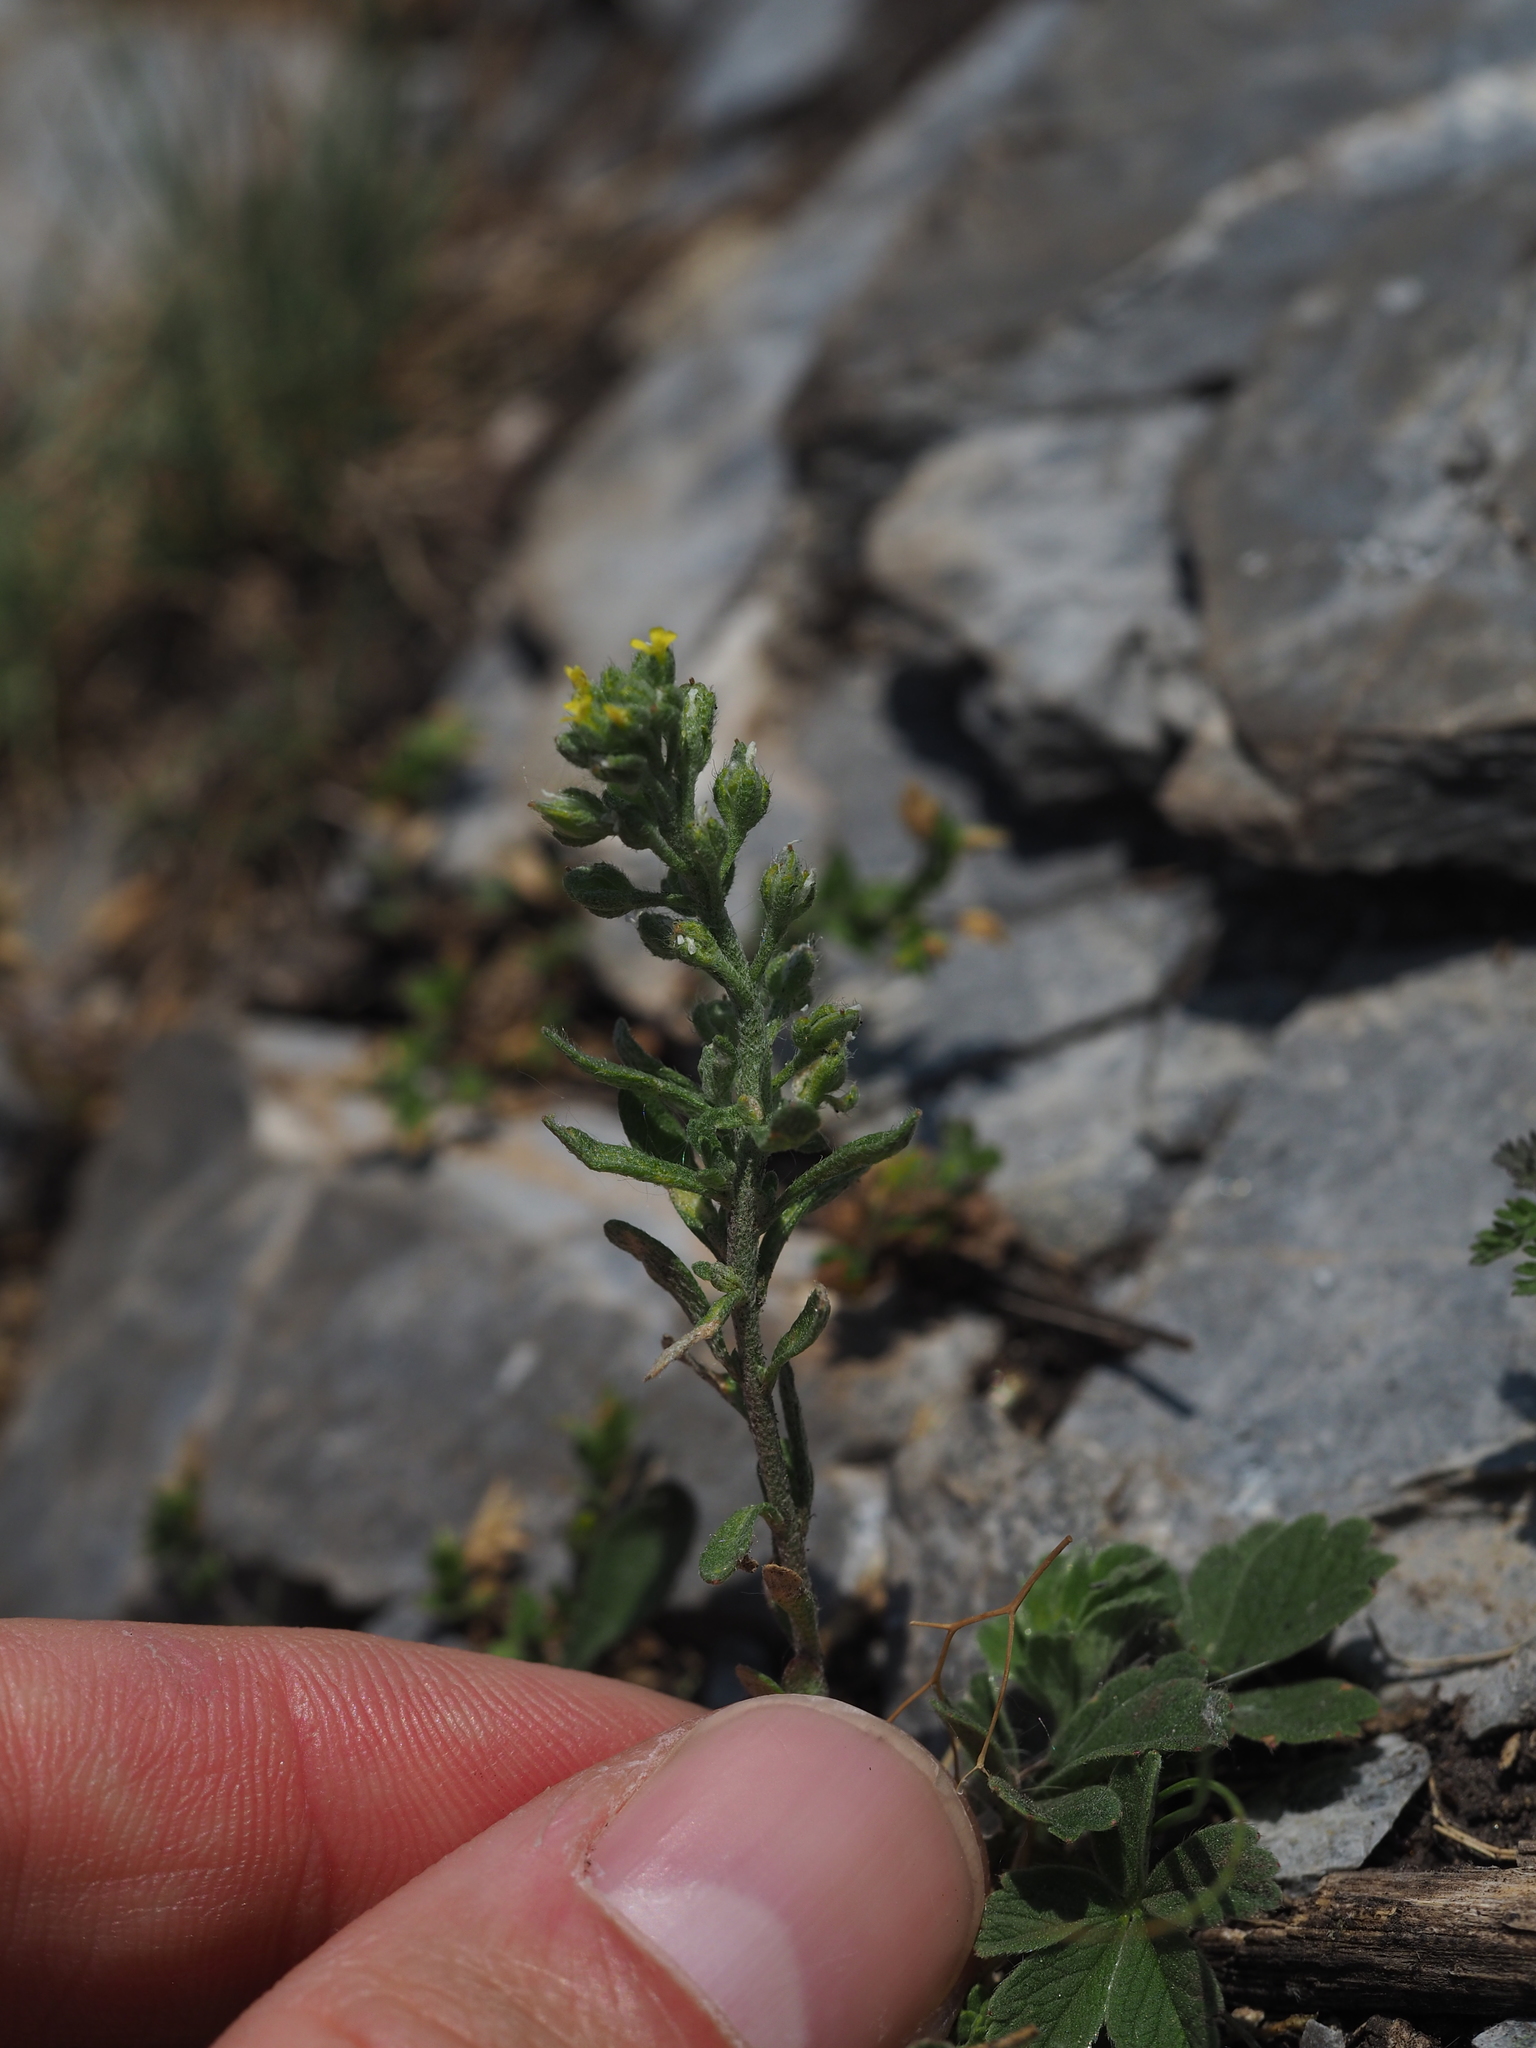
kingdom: Plantae
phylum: Tracheophyta
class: Magnoliopsida
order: Brassicales
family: Brassicaceae
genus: Alyssum
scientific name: Alyssum alyssoides
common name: Small alison
